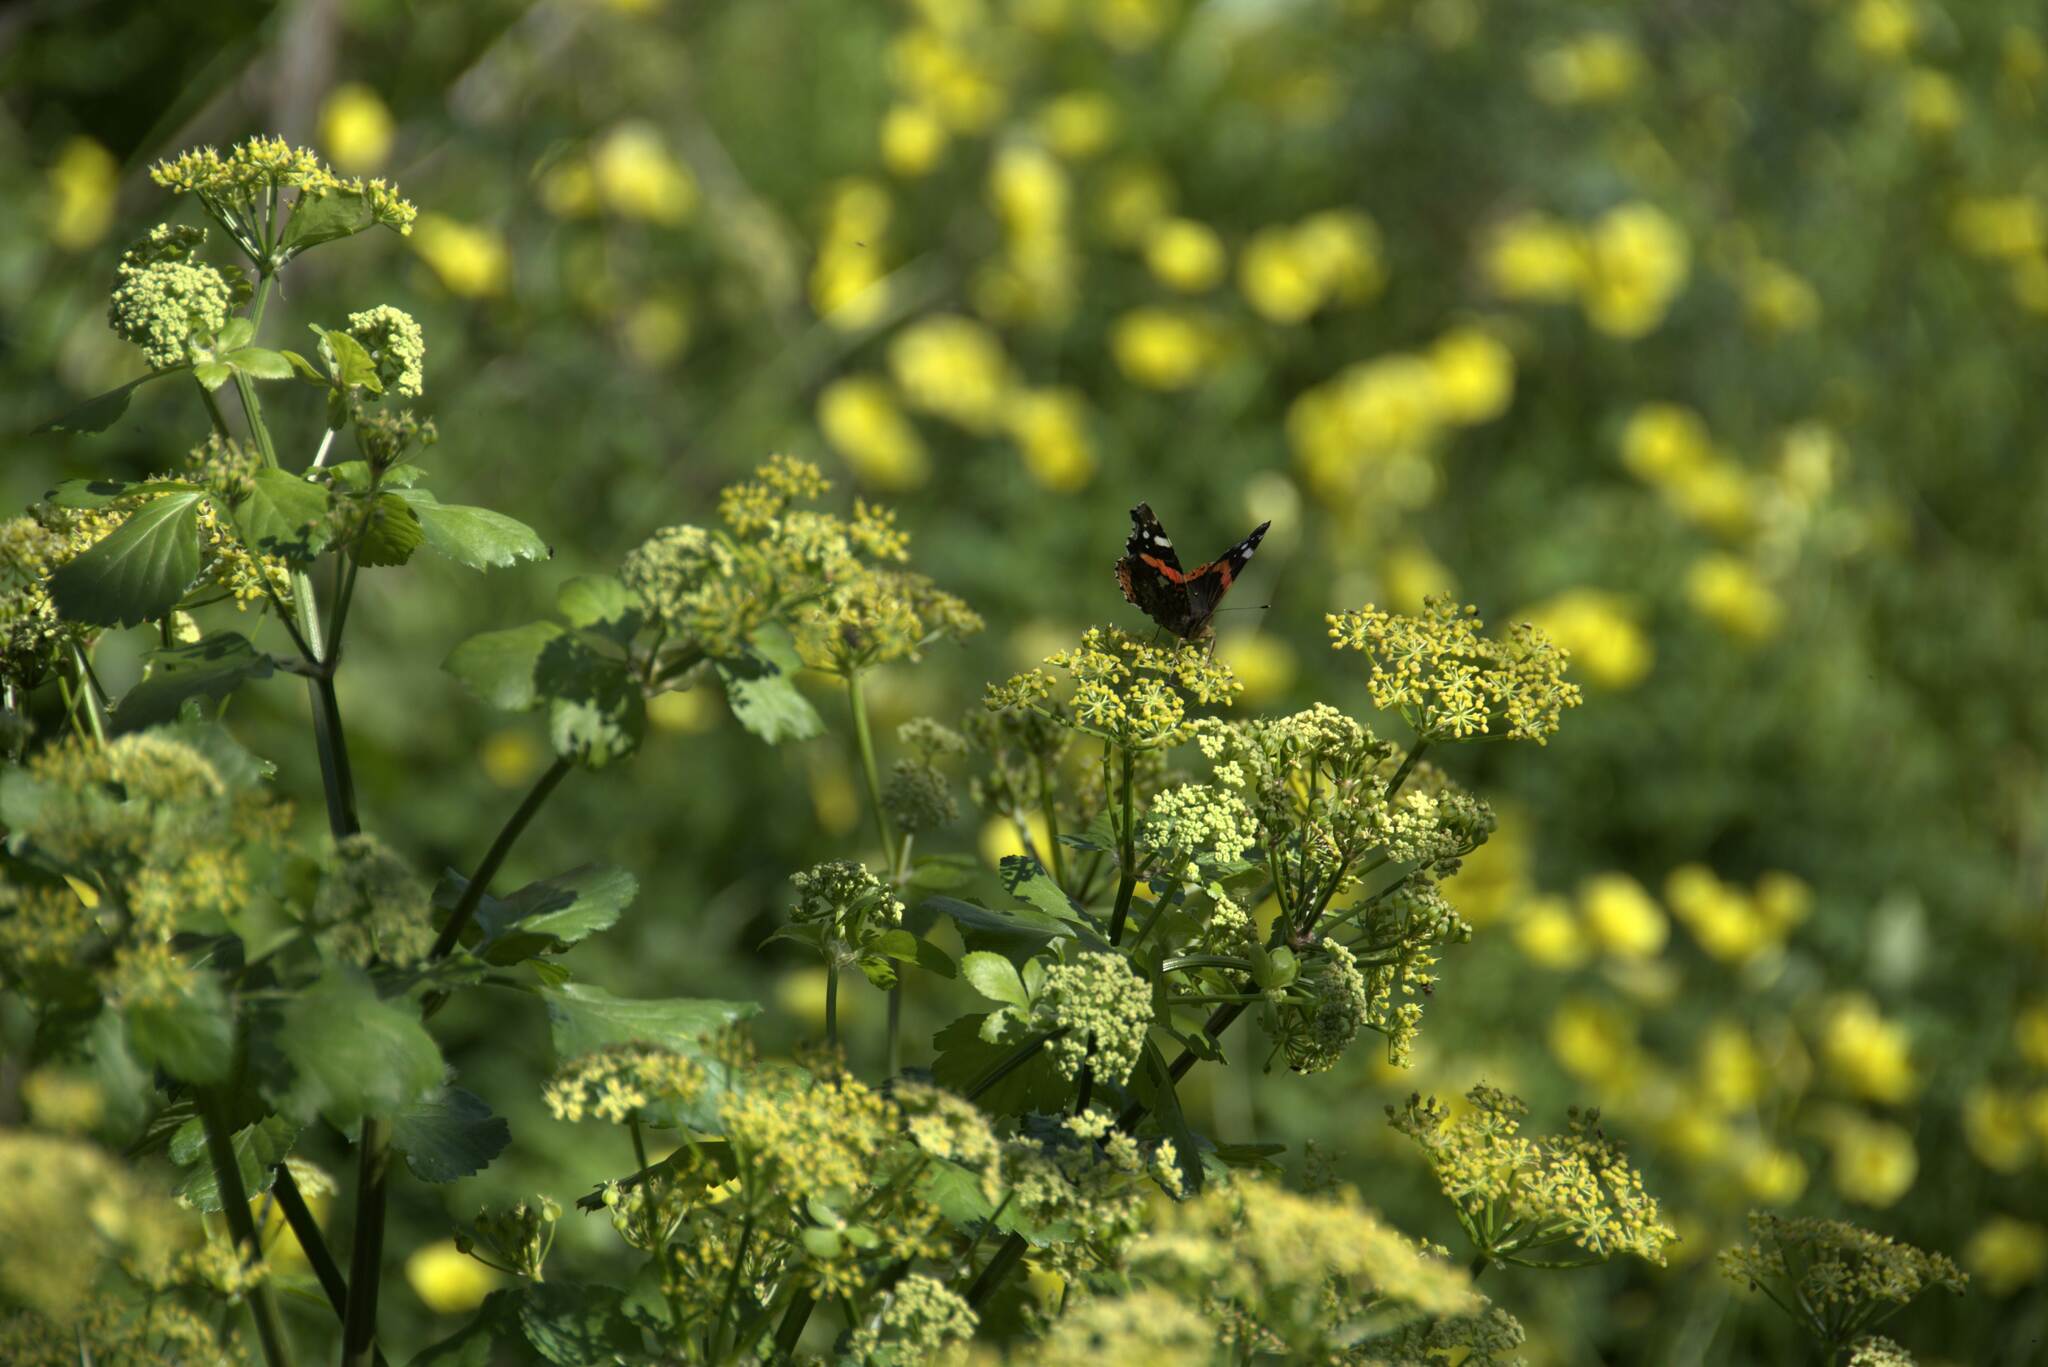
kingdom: Animalia
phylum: Arthropoda
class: Insecta
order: Lepidoptera
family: Nymphalidae
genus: Vanessa
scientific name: Vanessa atalanta
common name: Red admiral
